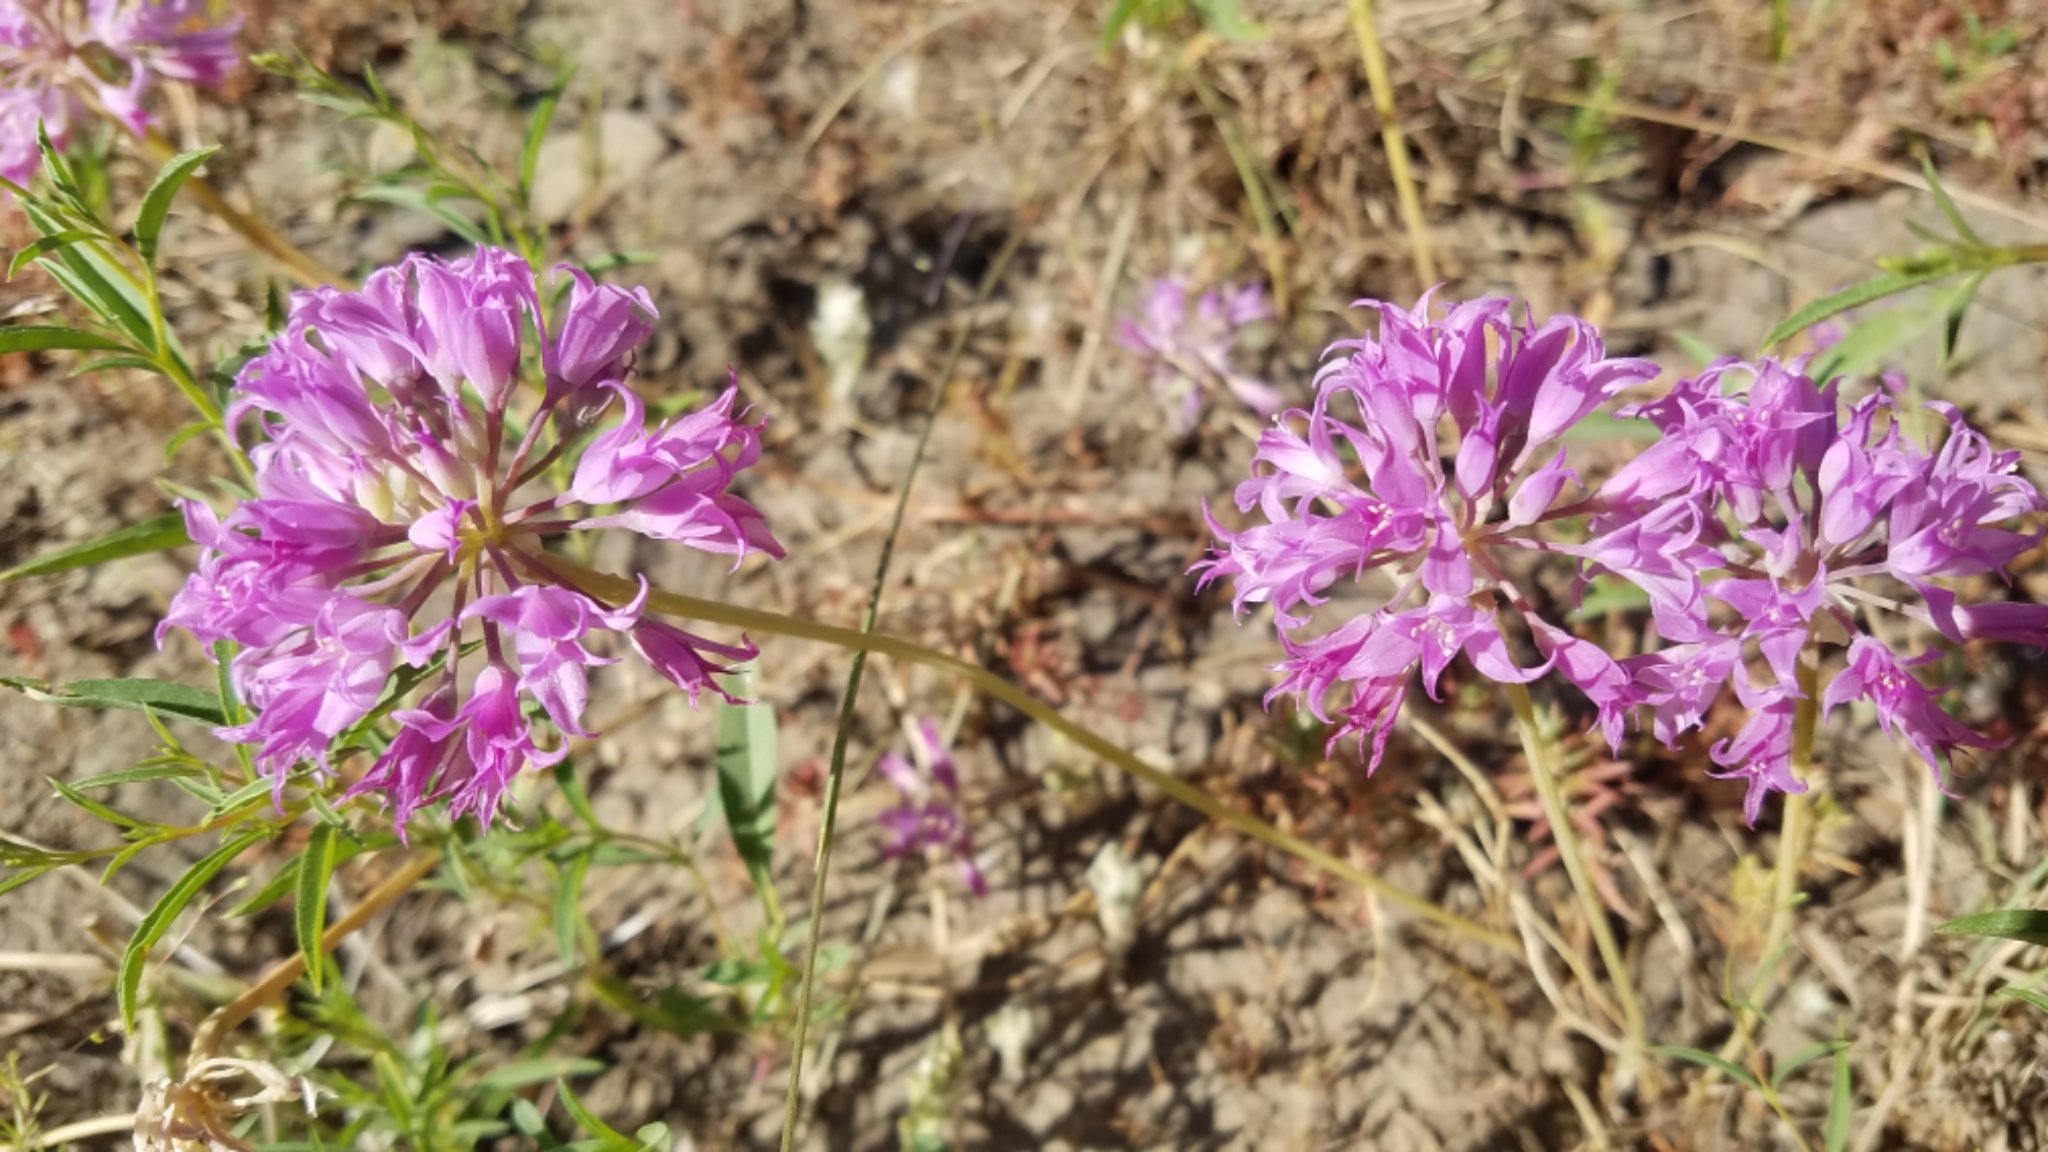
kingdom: Plantae
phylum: Tracheophyta
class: Liliopsida
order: Asparagales
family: Amaryllidaceae
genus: Allium
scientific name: Allium acuminatum
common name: Hooker's onion
